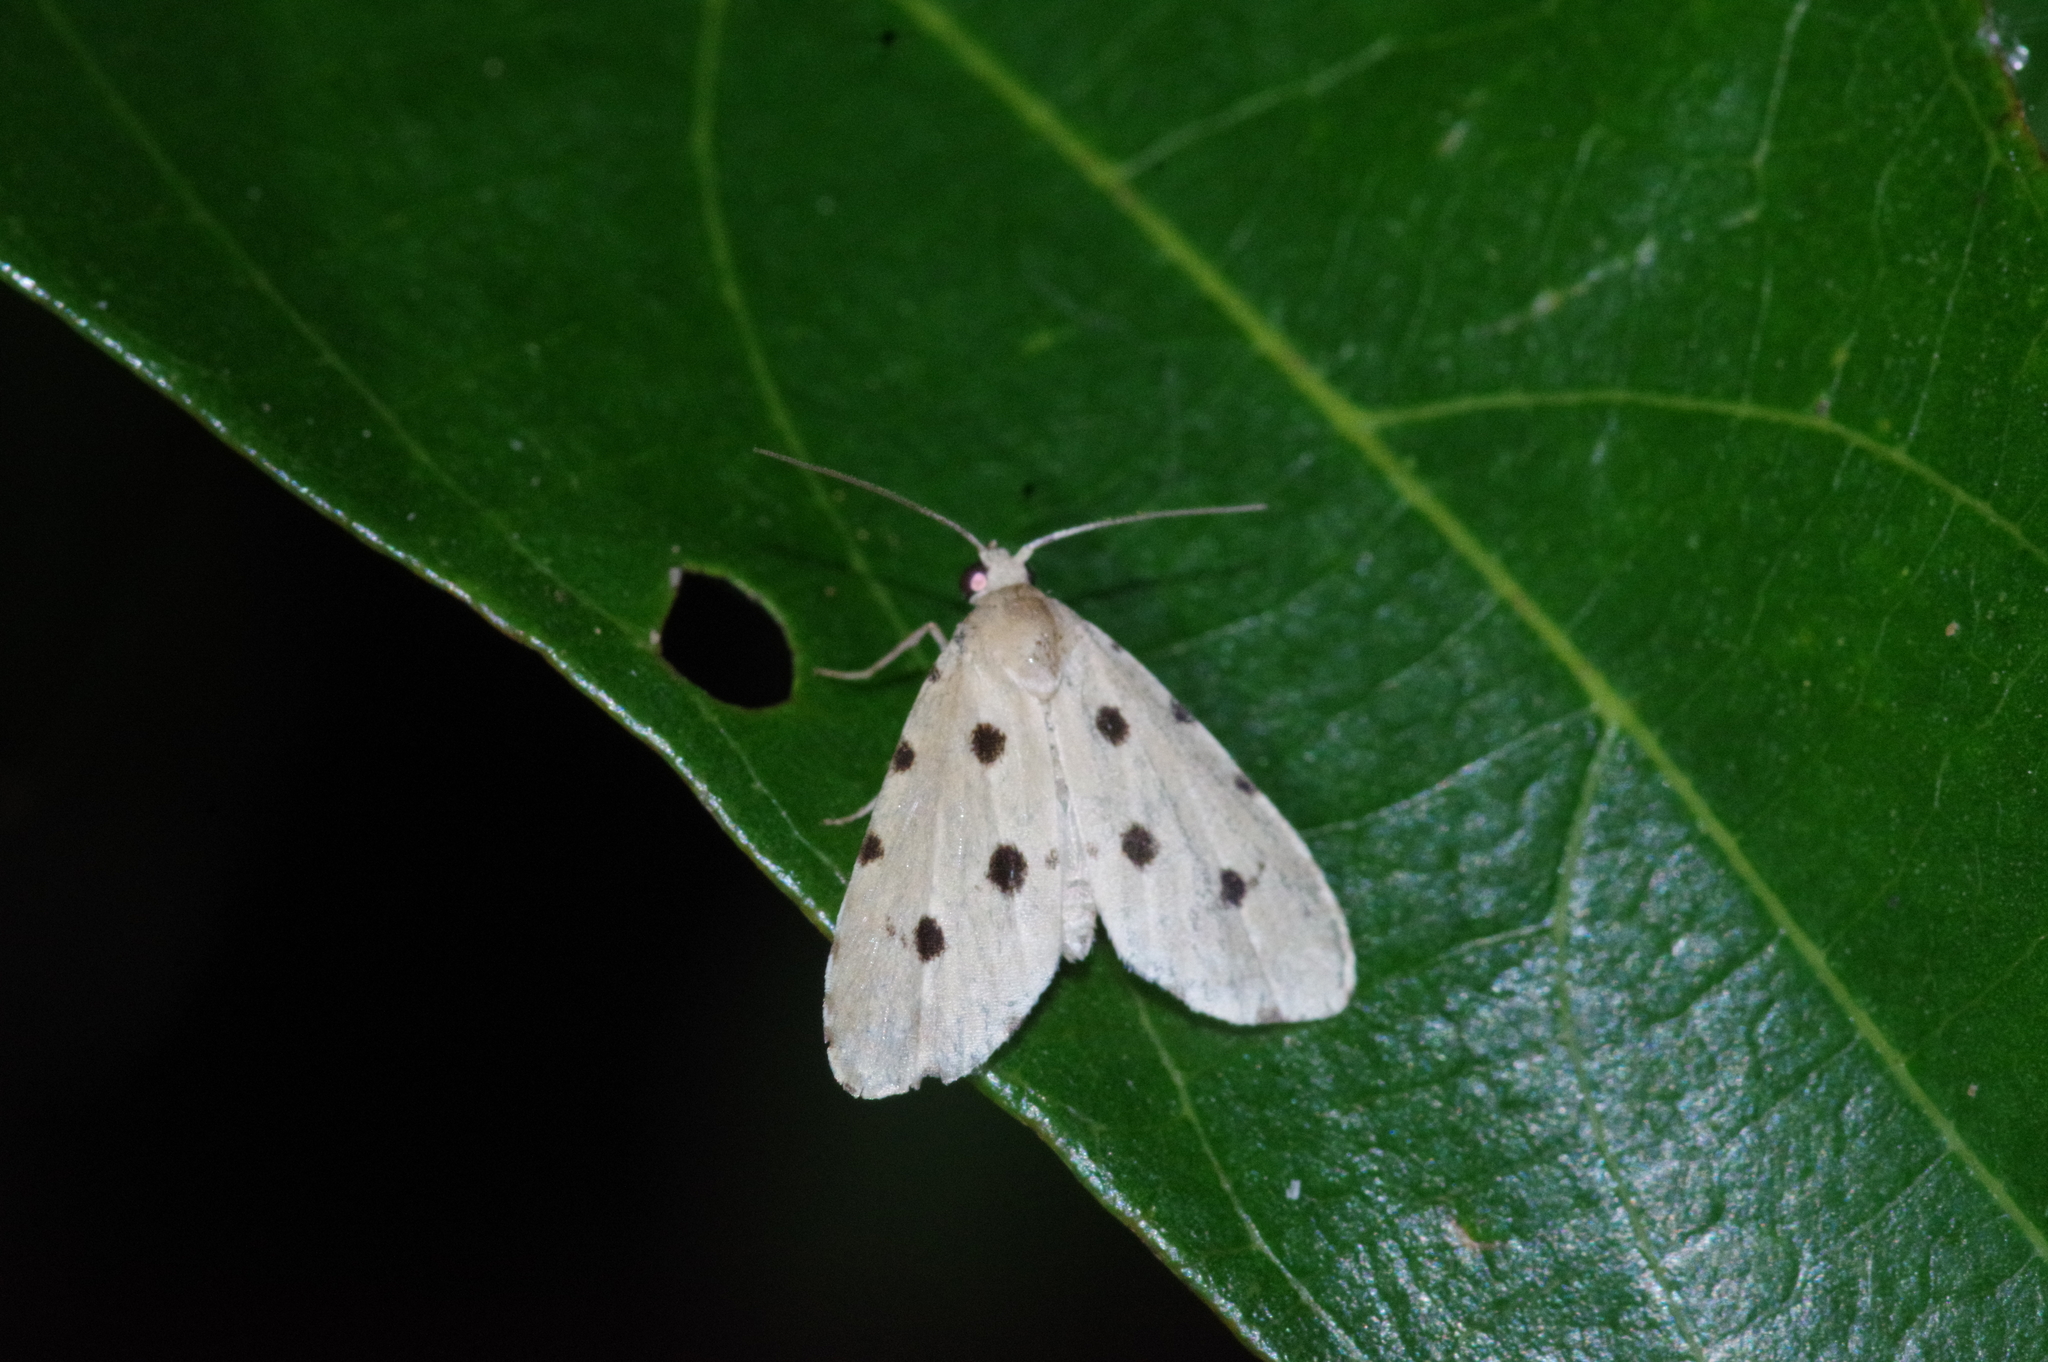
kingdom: Animalia
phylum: Arthropoda
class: Insecta
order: Lepidoptera
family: Noctuidae
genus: Metaemene
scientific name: Metaemene atrigutta
